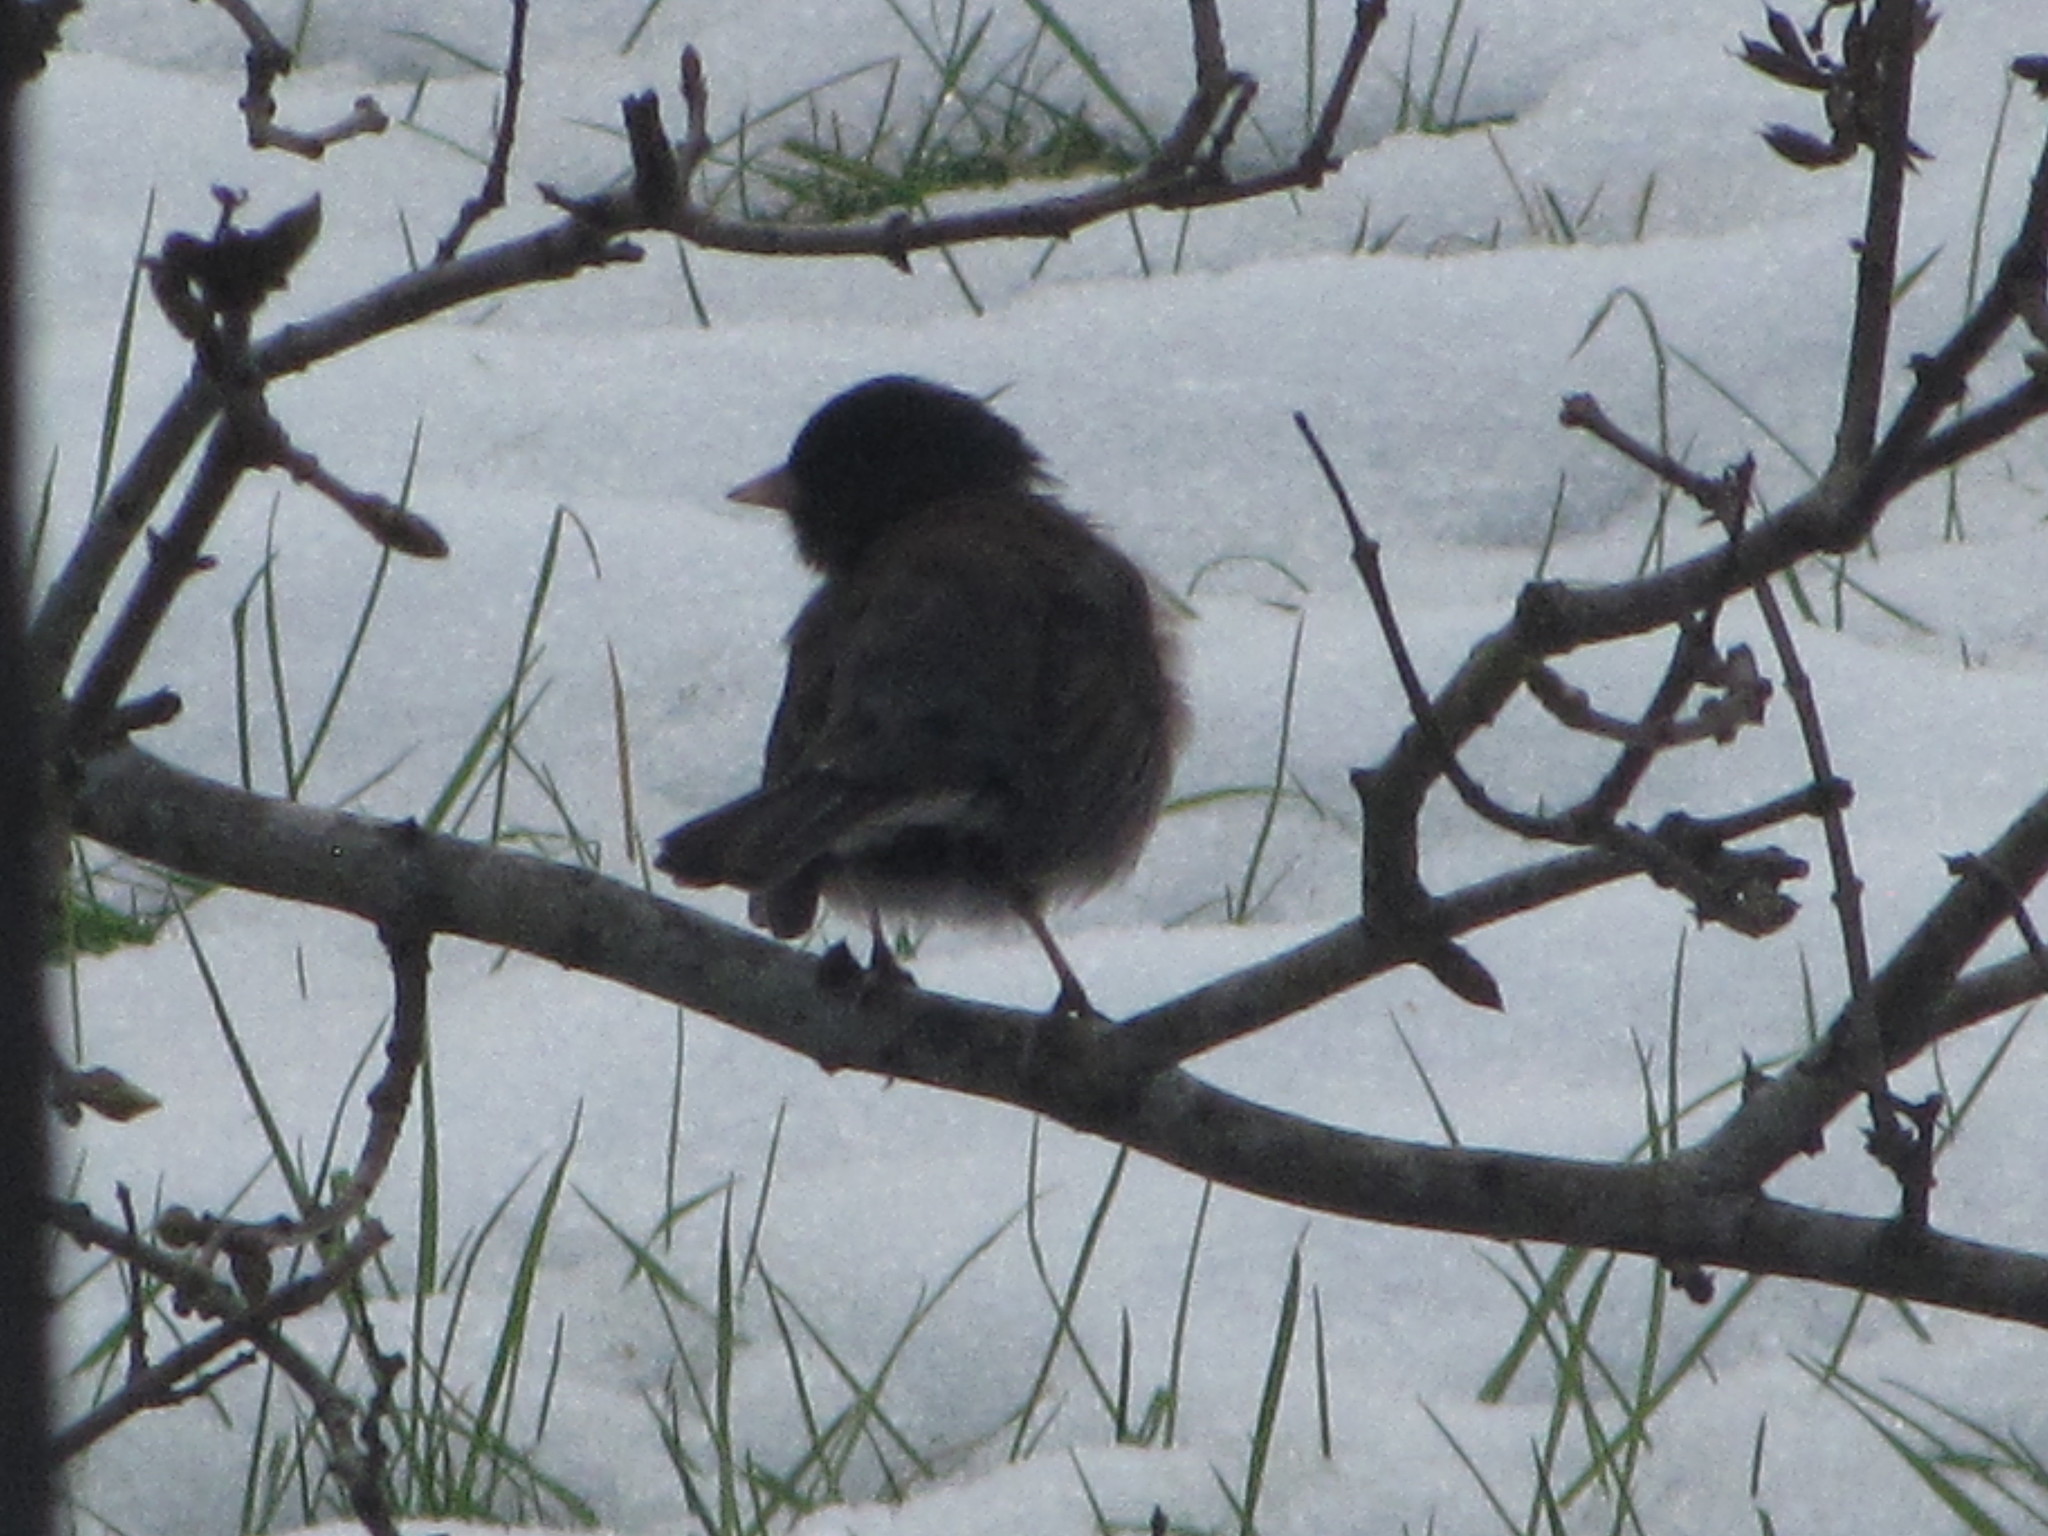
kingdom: Animalia
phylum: Chordata
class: Aves
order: Passeriformes
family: Passerellidae
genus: Junco
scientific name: Junco hyemalis
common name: Dark-eyed junco
